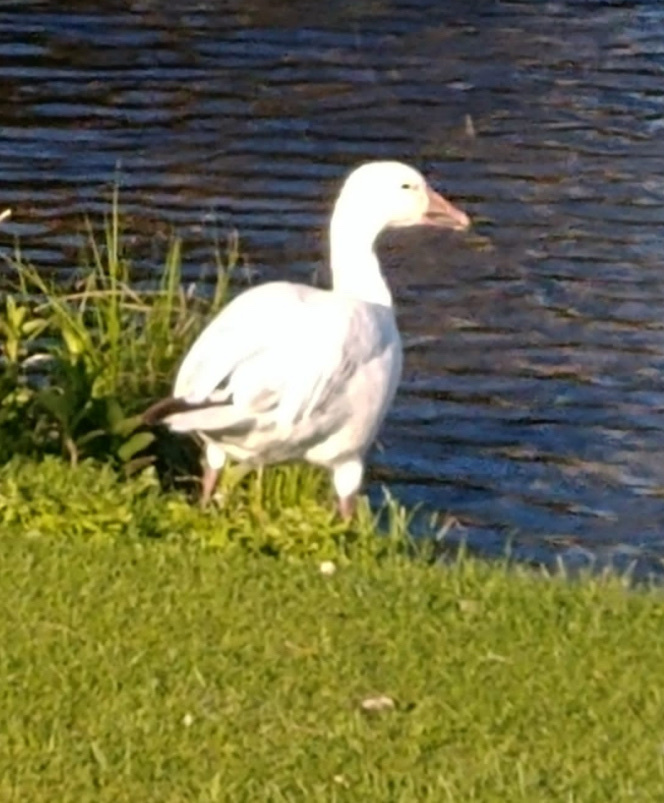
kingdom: Animalia
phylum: Chordata
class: Aves
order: Anseriformes
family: Anatidae
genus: Anser
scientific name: Anser caerulescens
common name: Snow goose
